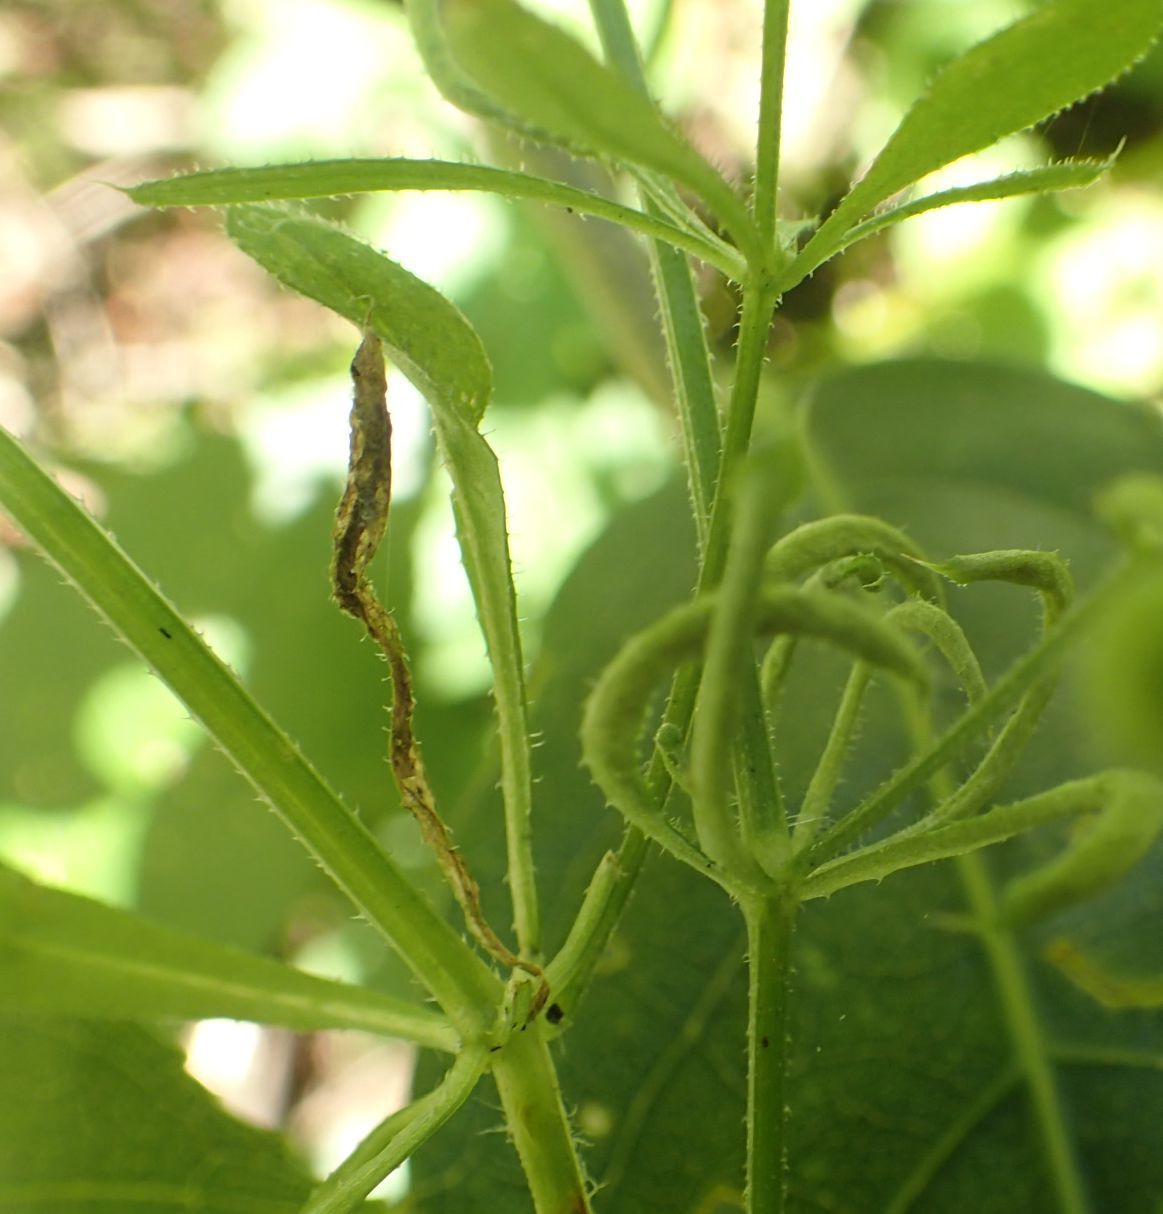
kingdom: Plantae
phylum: Tracheophyta
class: Magnoliopsida
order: Gentianales
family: Rubiaceae
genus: Galium
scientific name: Galium aparine
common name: Cleavers
